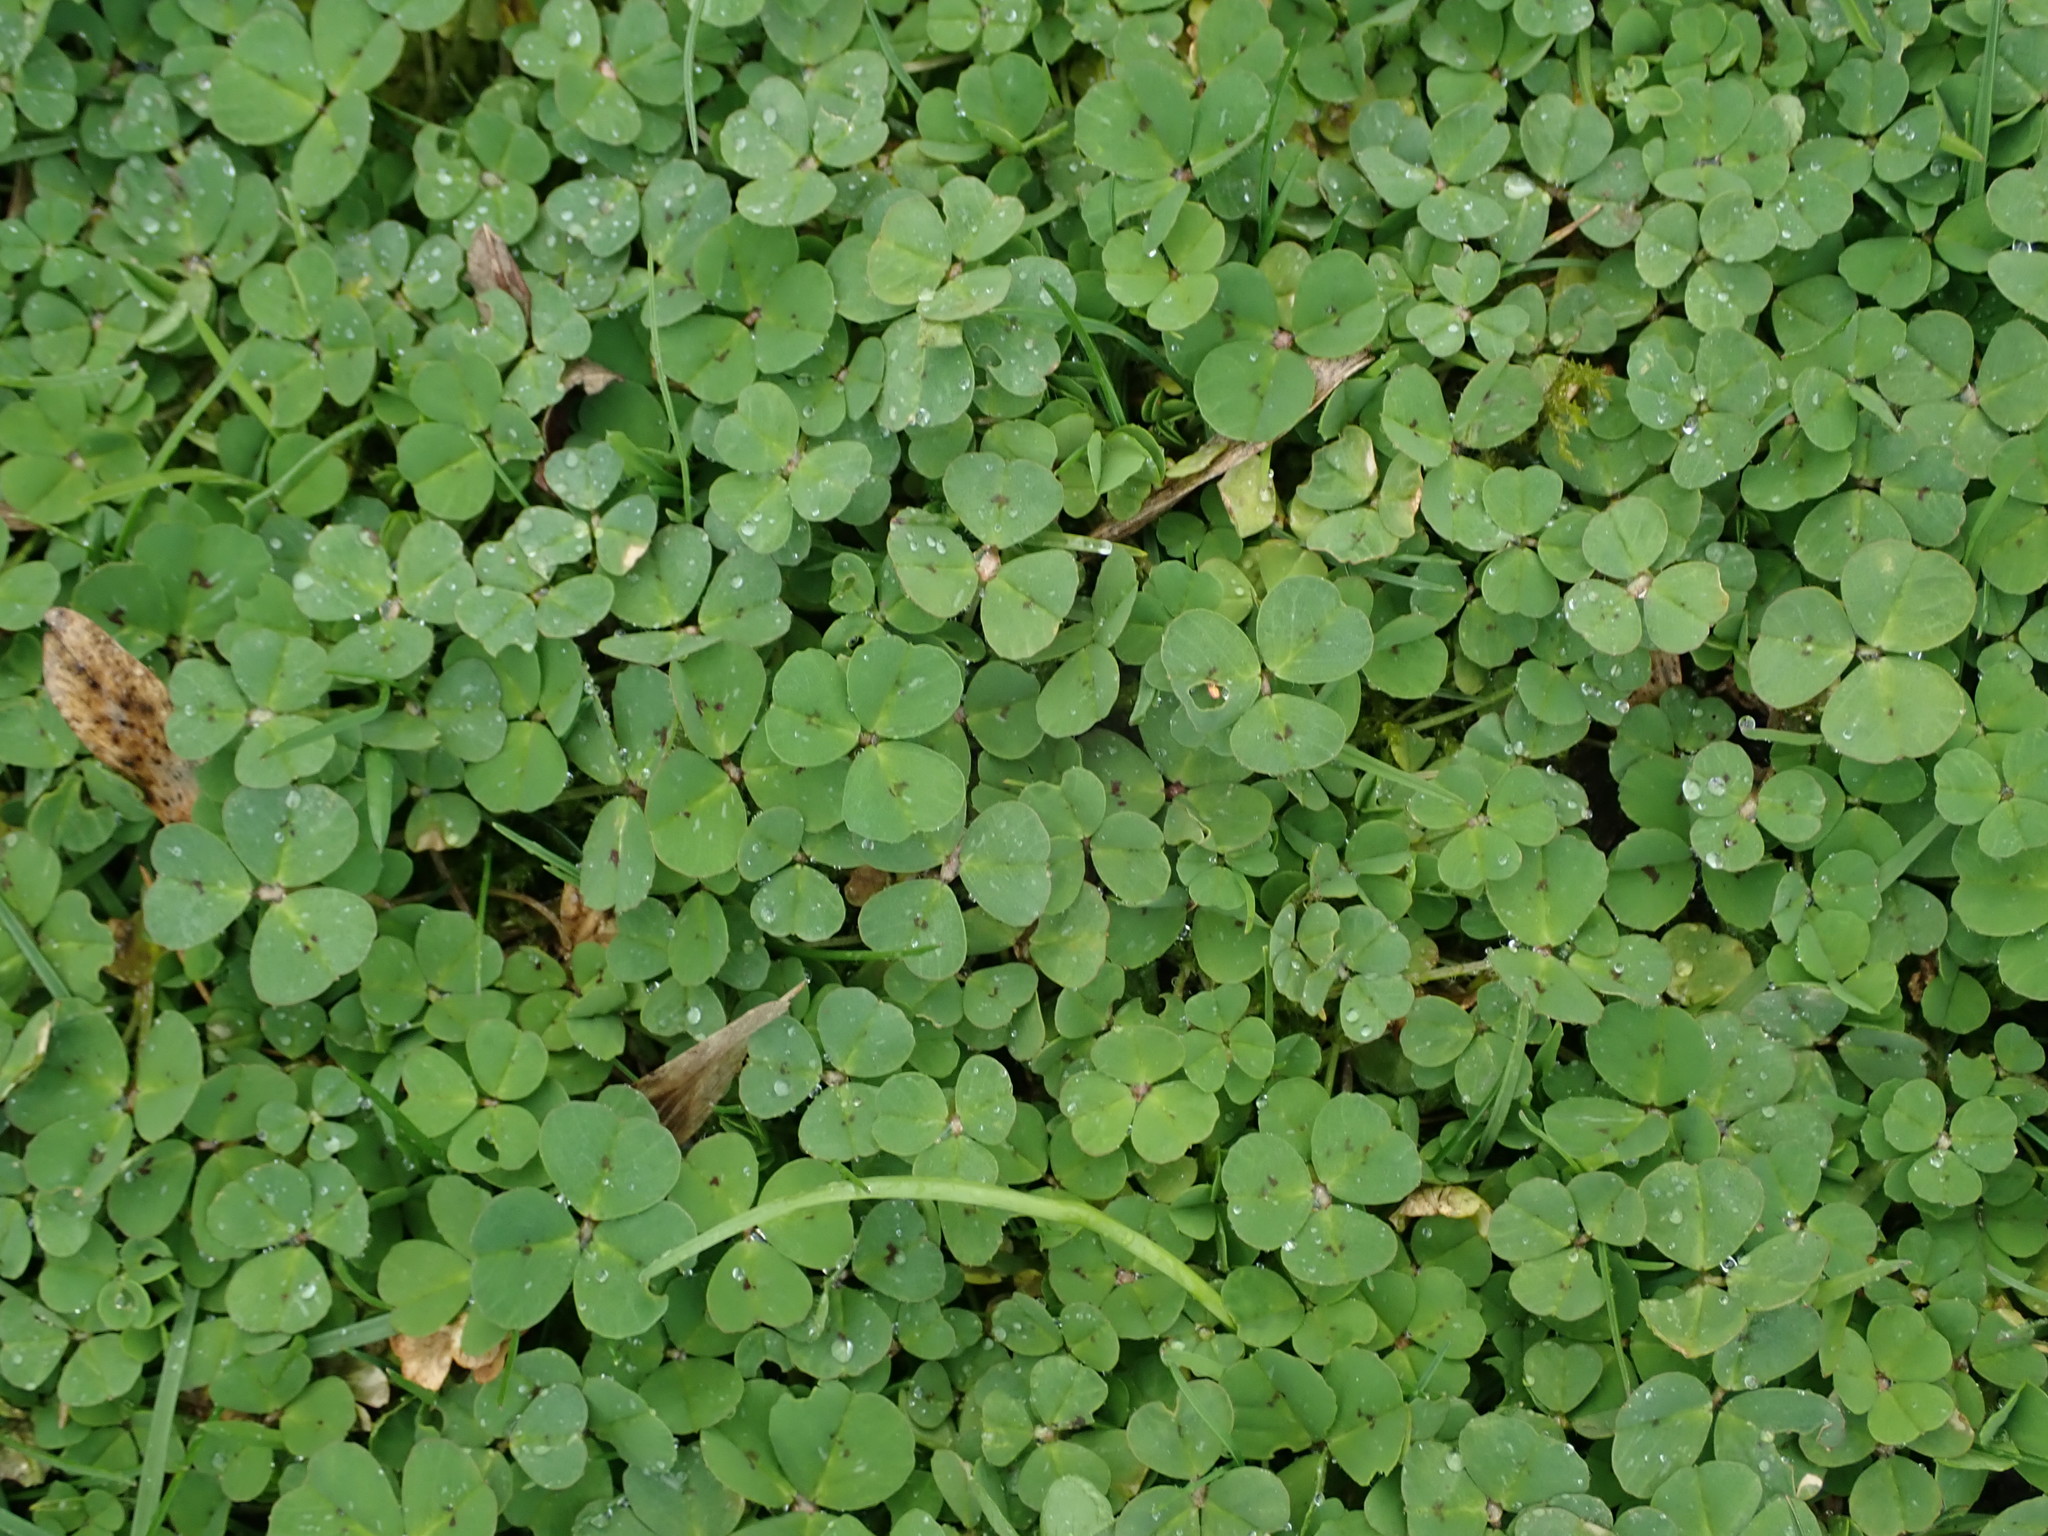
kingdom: Plantae
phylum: Tracheophyta
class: Magnoliopsida
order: Fabales
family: Fabaceae
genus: Medicago
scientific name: Medicago arabica
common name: Spotted medick
